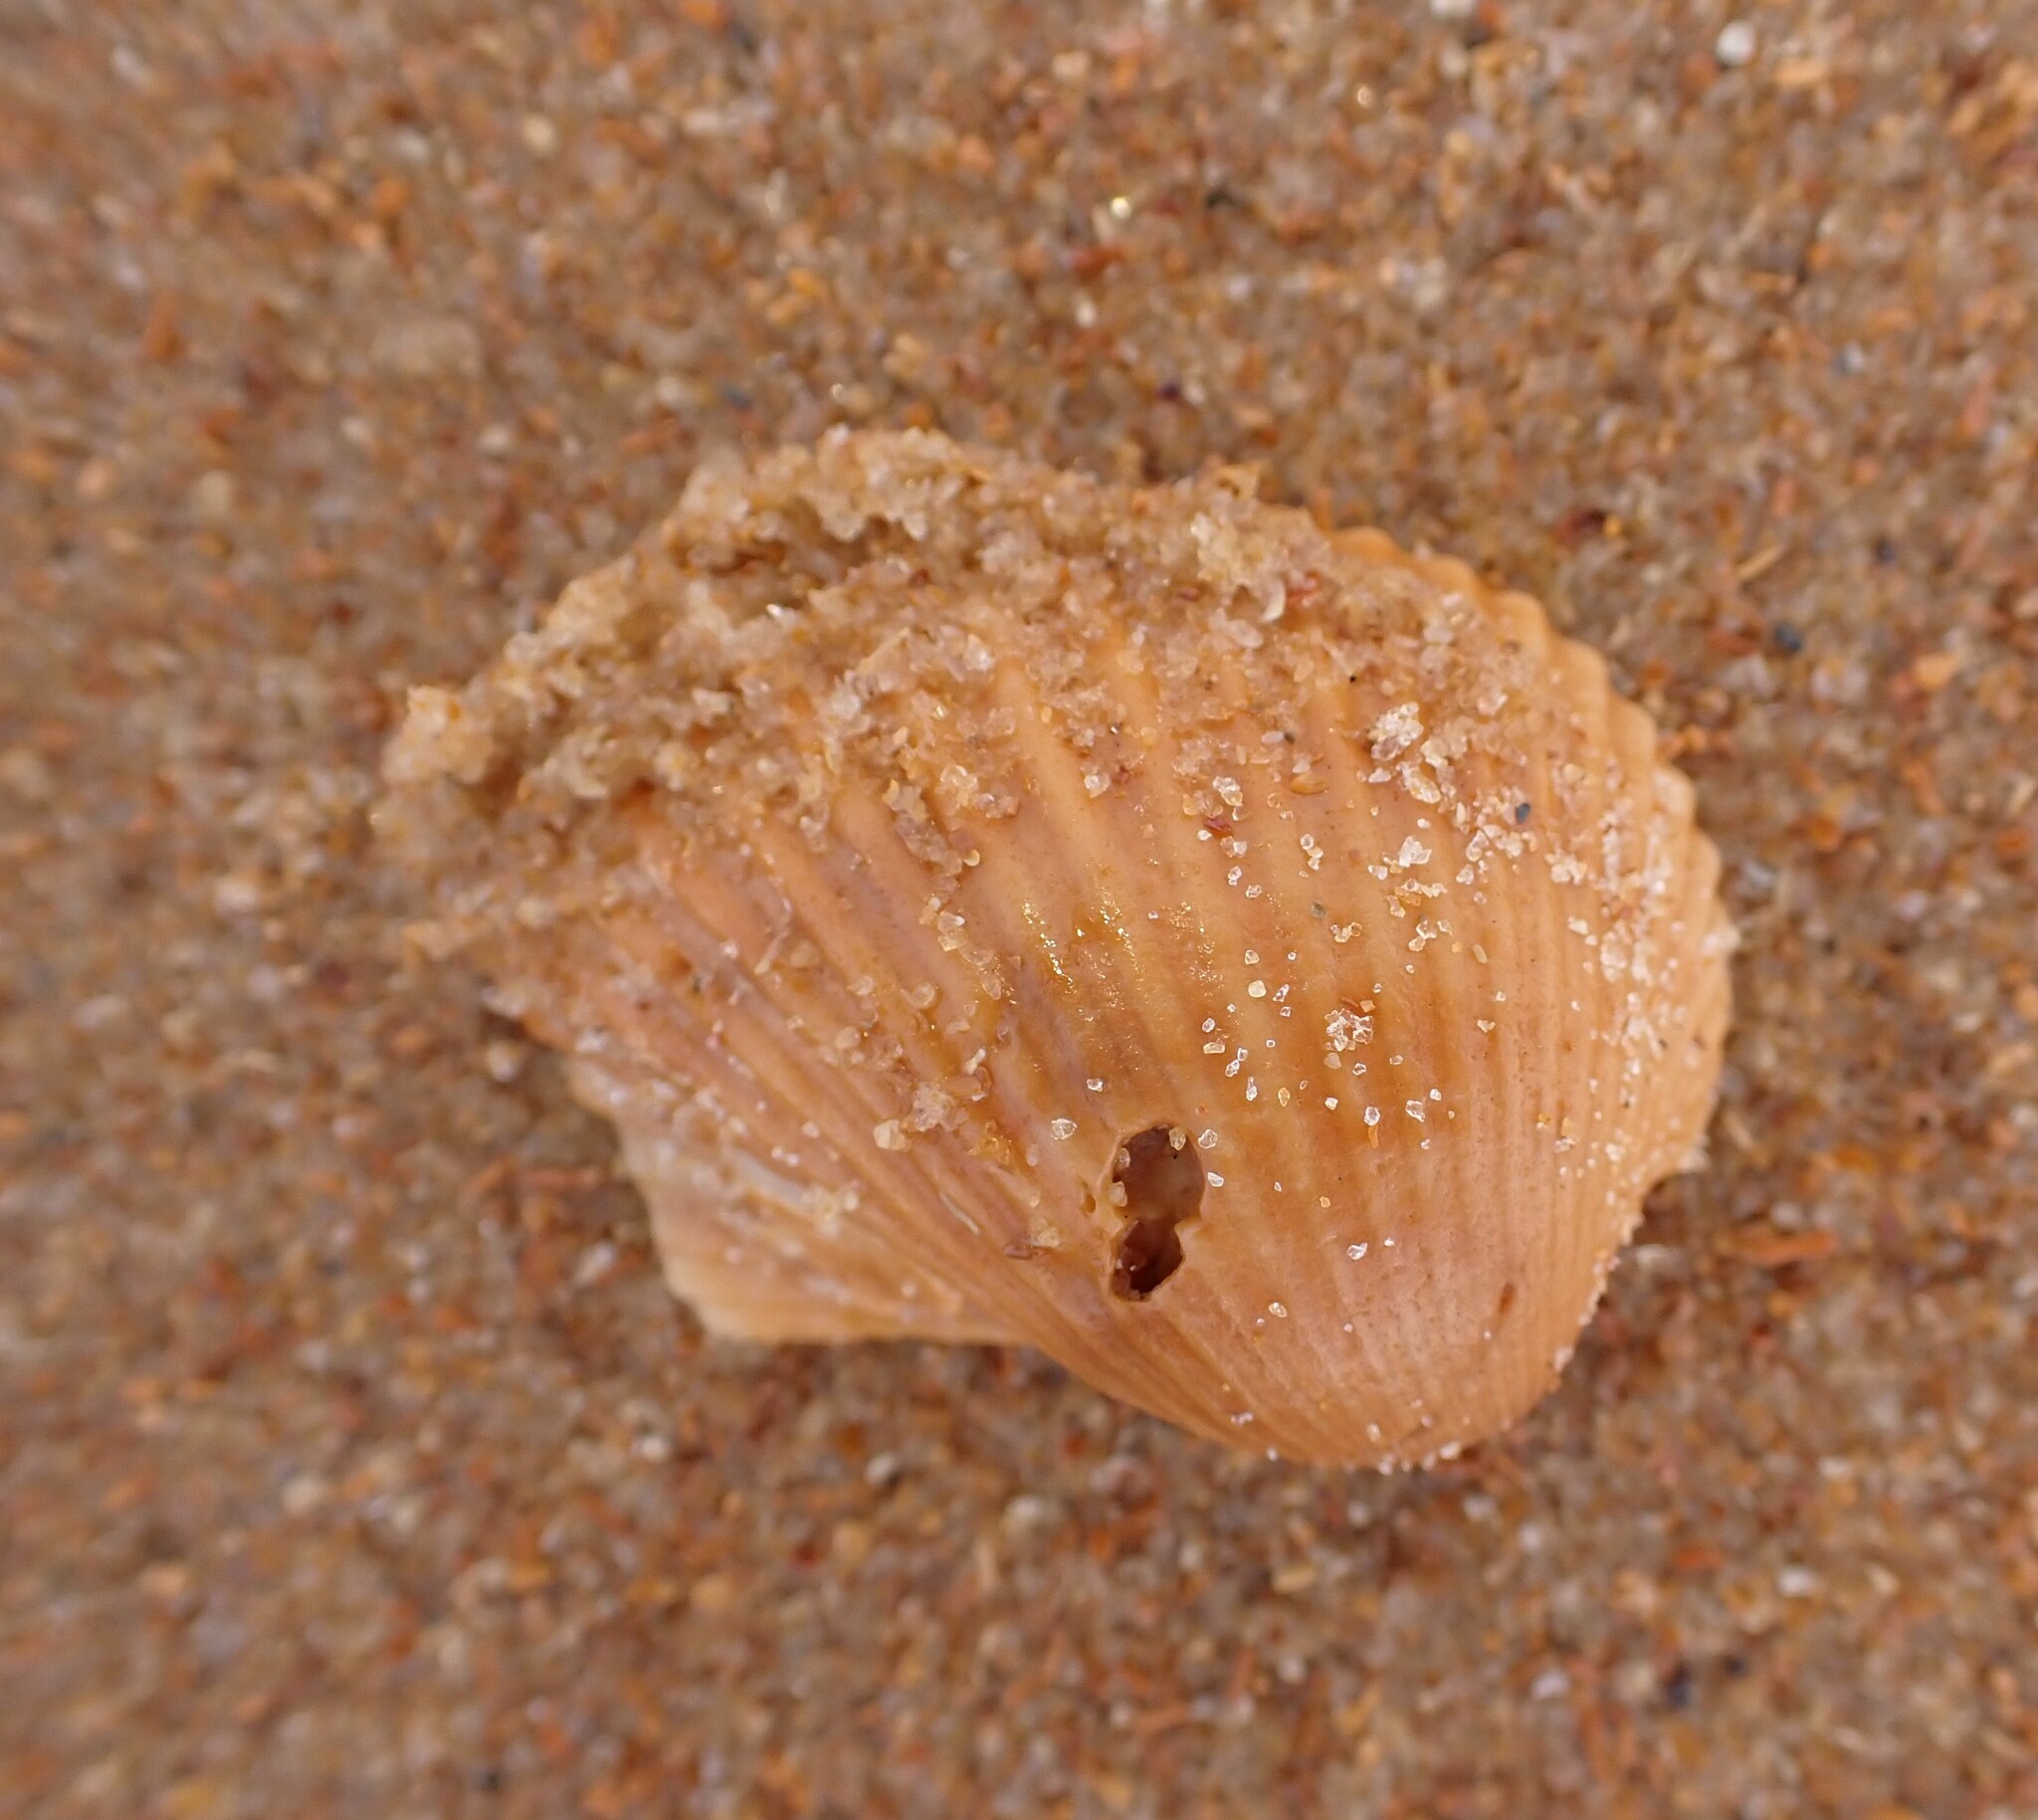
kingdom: Animalia
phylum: Mollusca
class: Bivalvia
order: Arcida
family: Arcidae
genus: Anadara
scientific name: Anadara notabilis
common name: Eared ark
